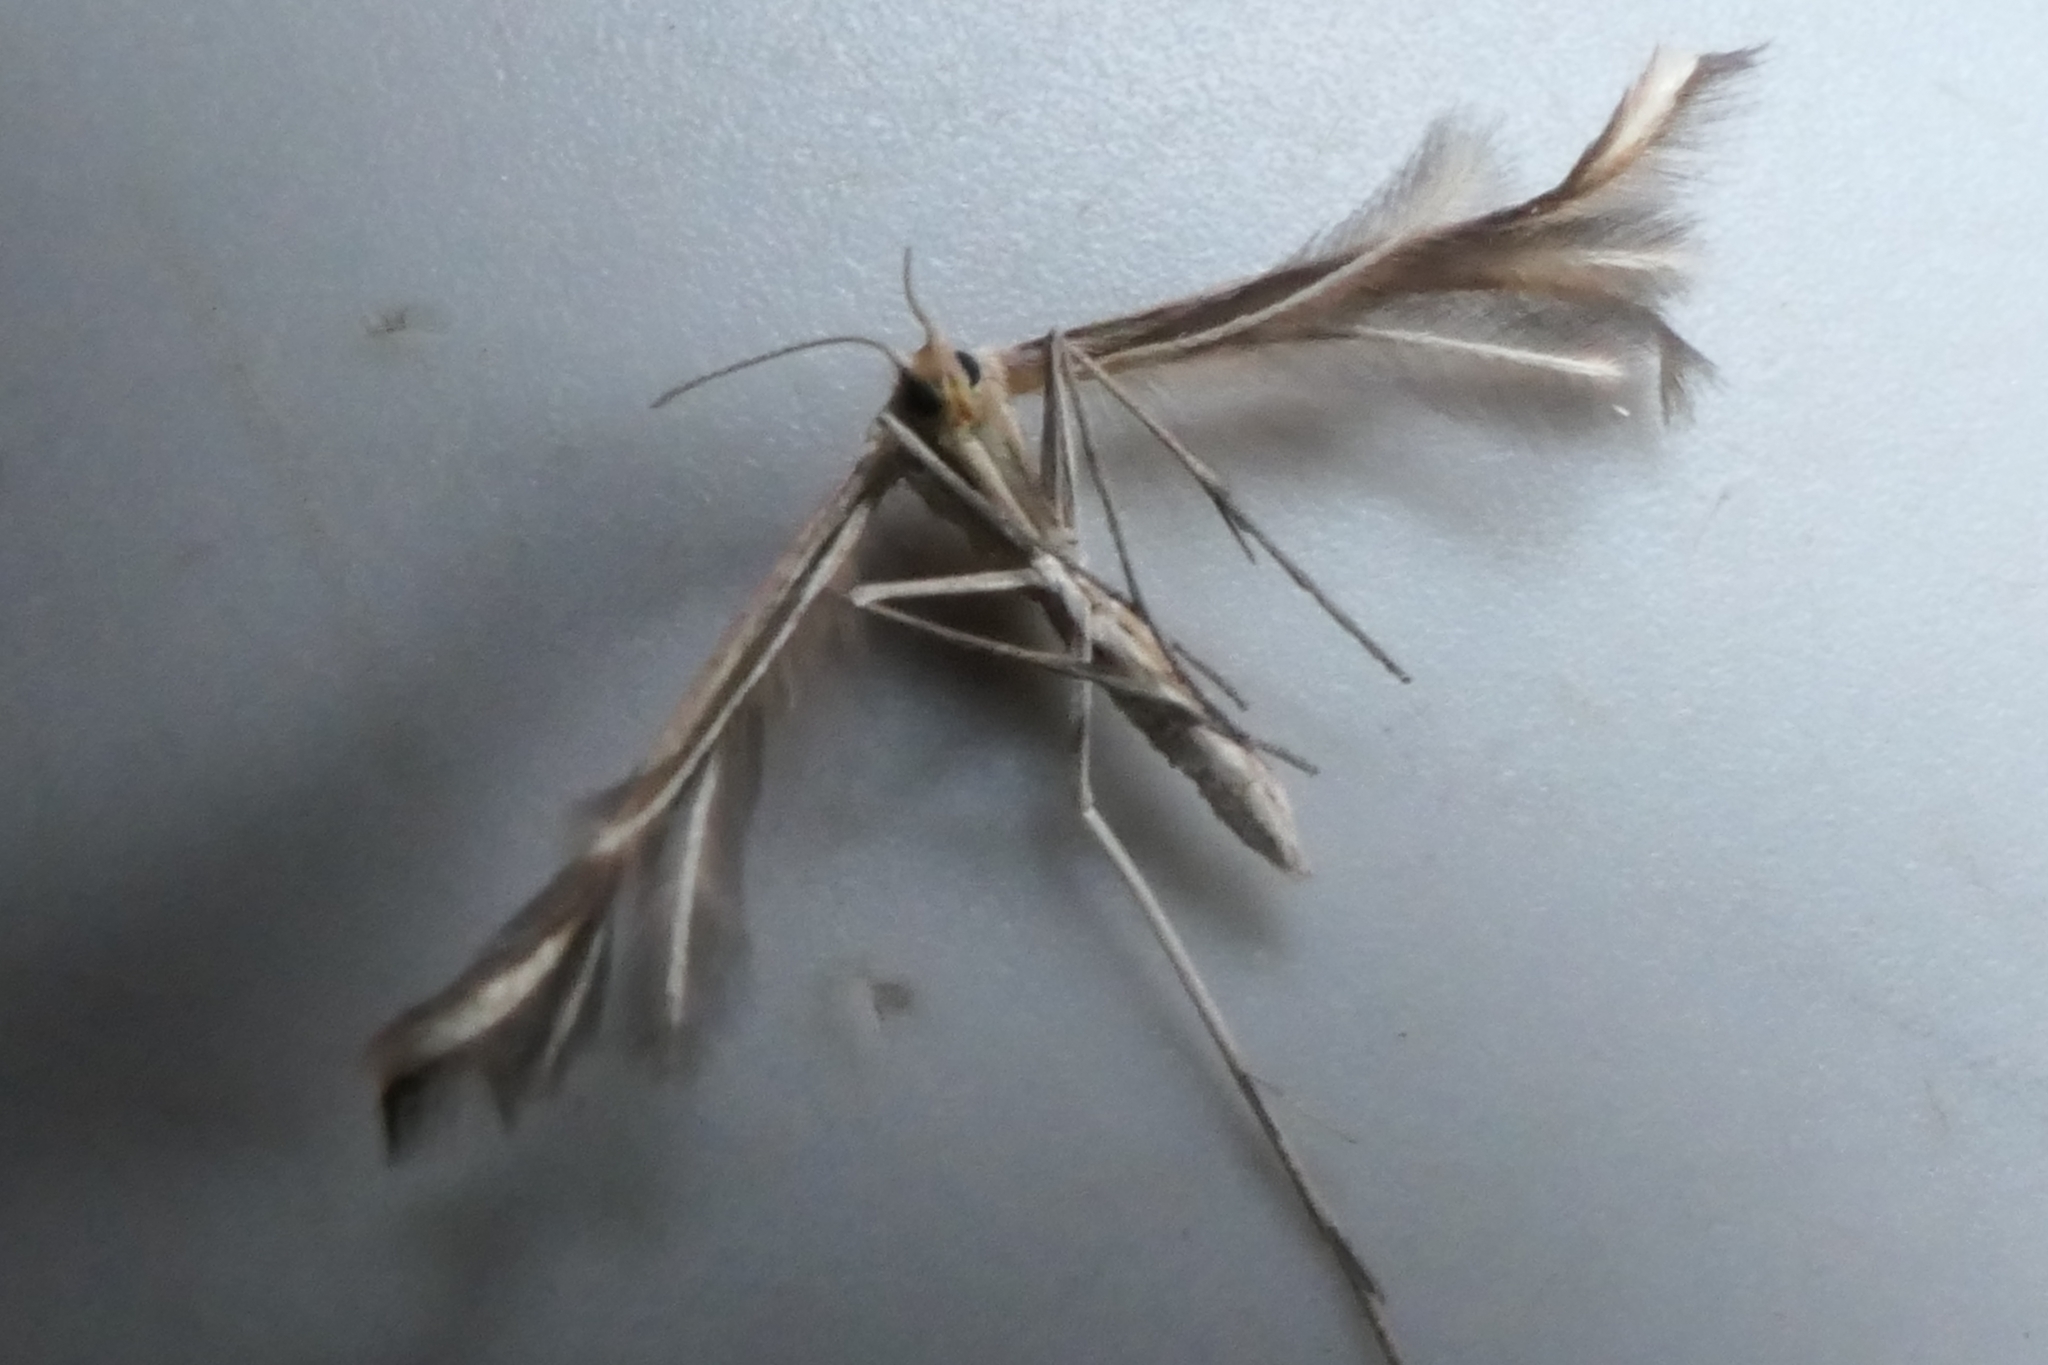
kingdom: Animalia
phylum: Arthropoda
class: Insecta
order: Lepidoptera
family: Pterophoridae
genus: Pterophorus
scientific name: Pterophorus innotatalis
